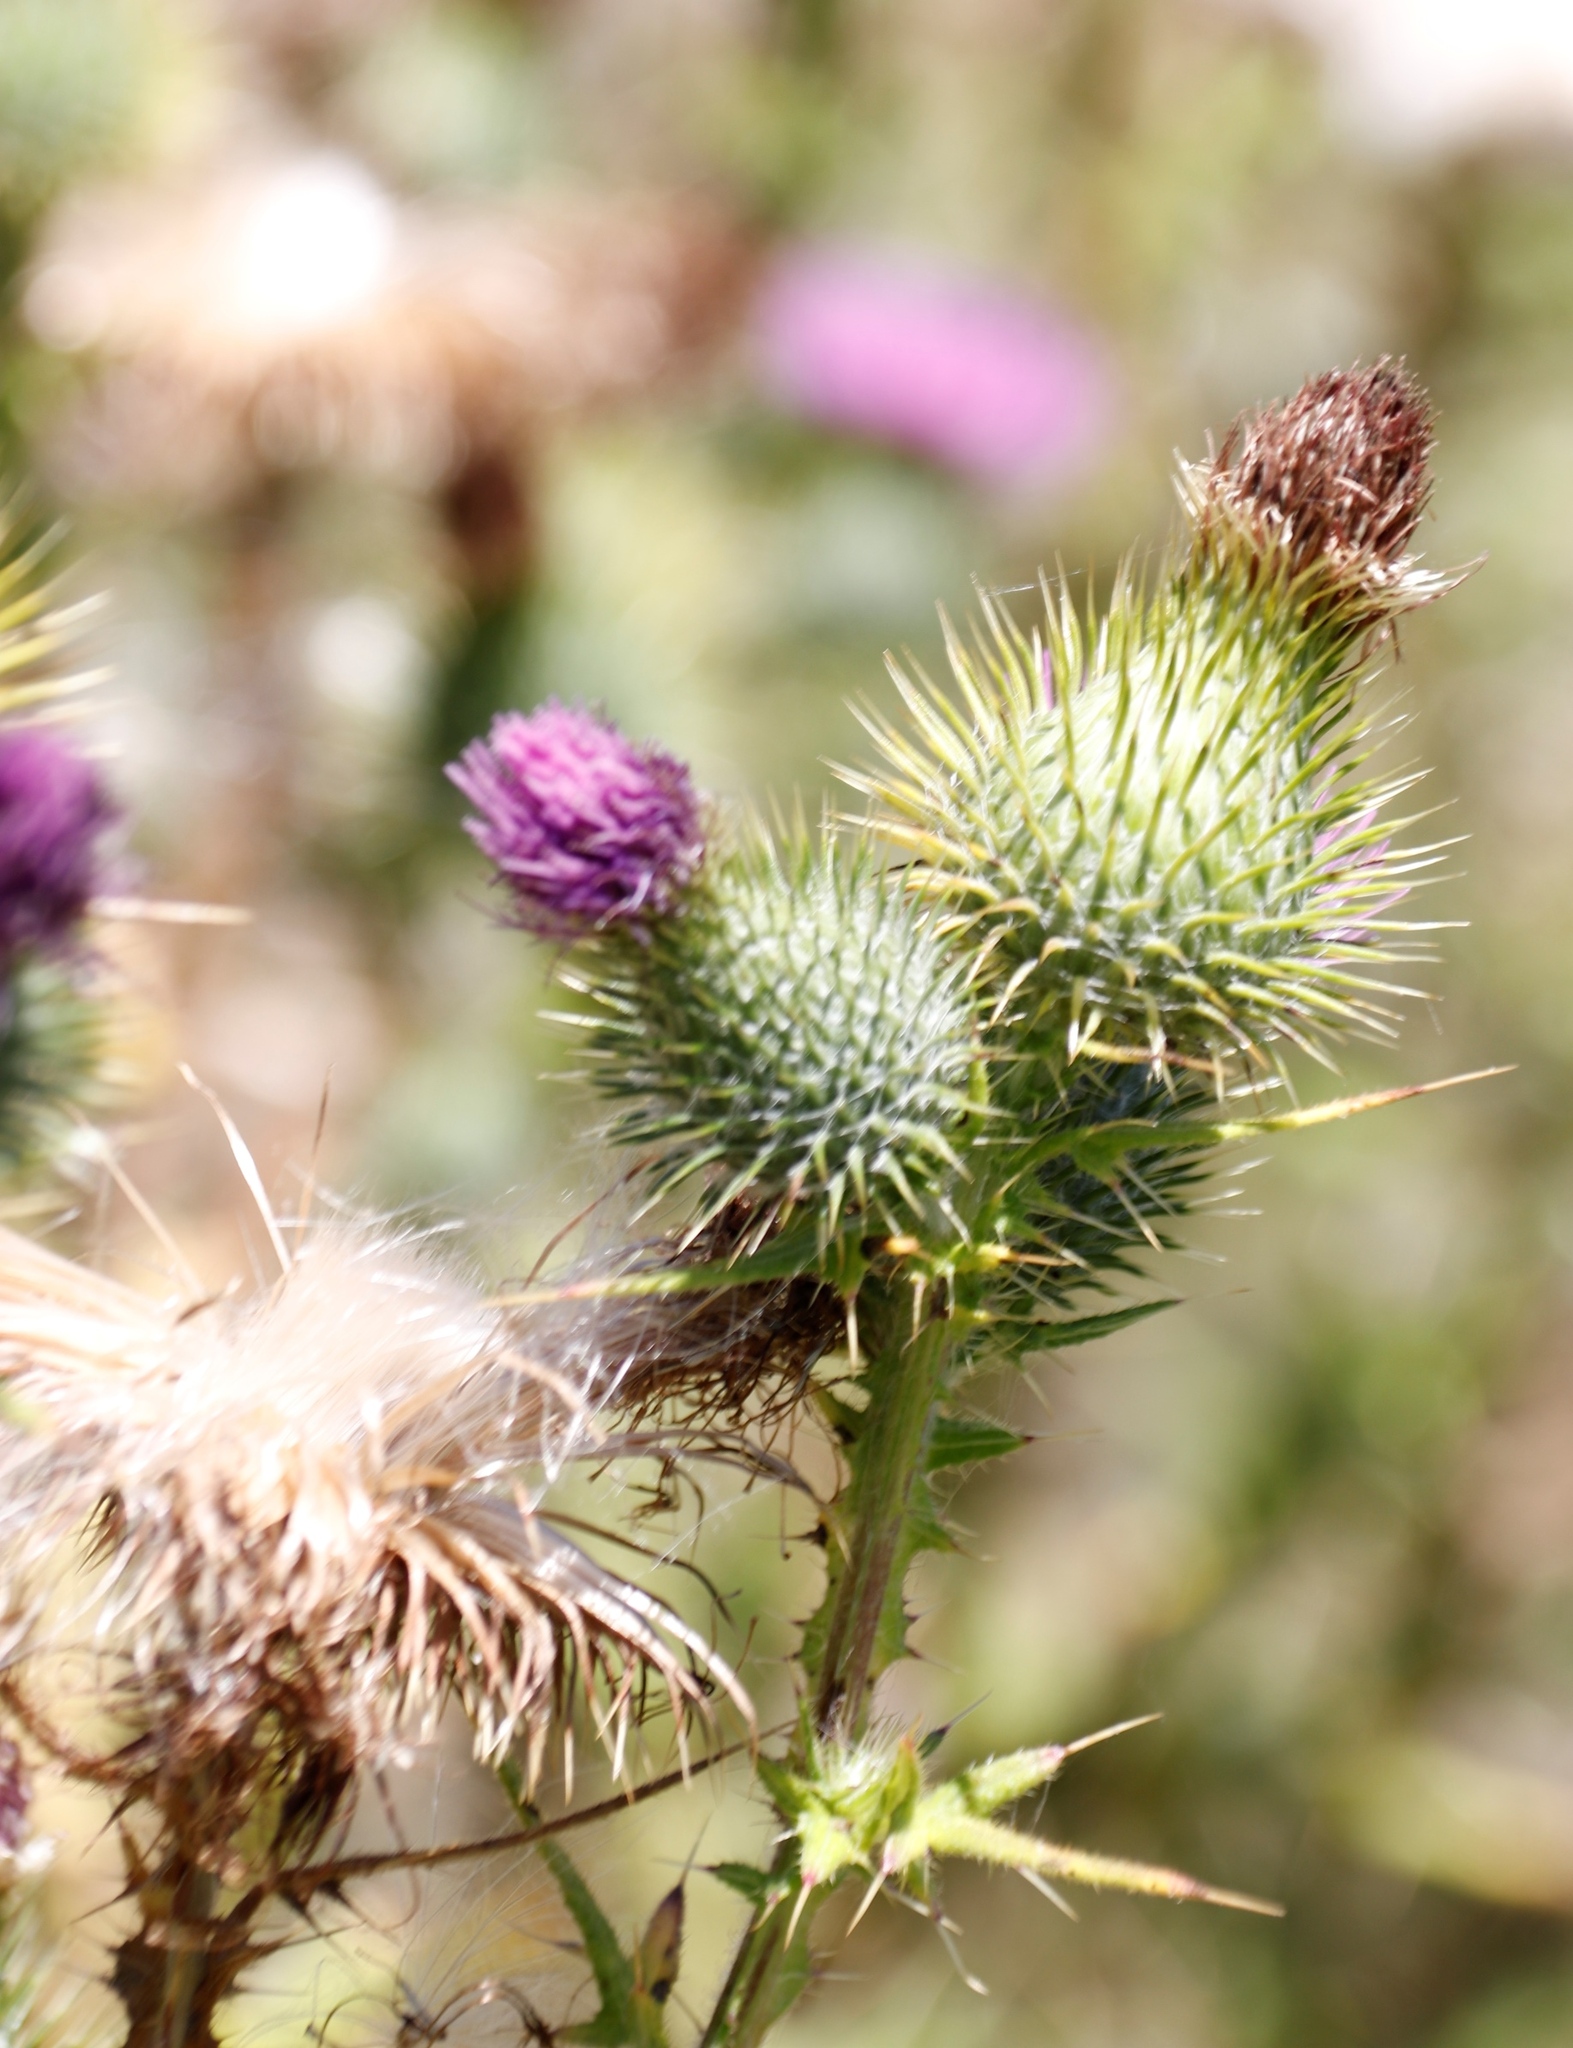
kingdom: Plantae
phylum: Tracheophyta
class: Magnoliopsida
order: Asterales
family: Asteraceae
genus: Cirsium
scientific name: Cirsium vulgare
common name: Bull thistle
